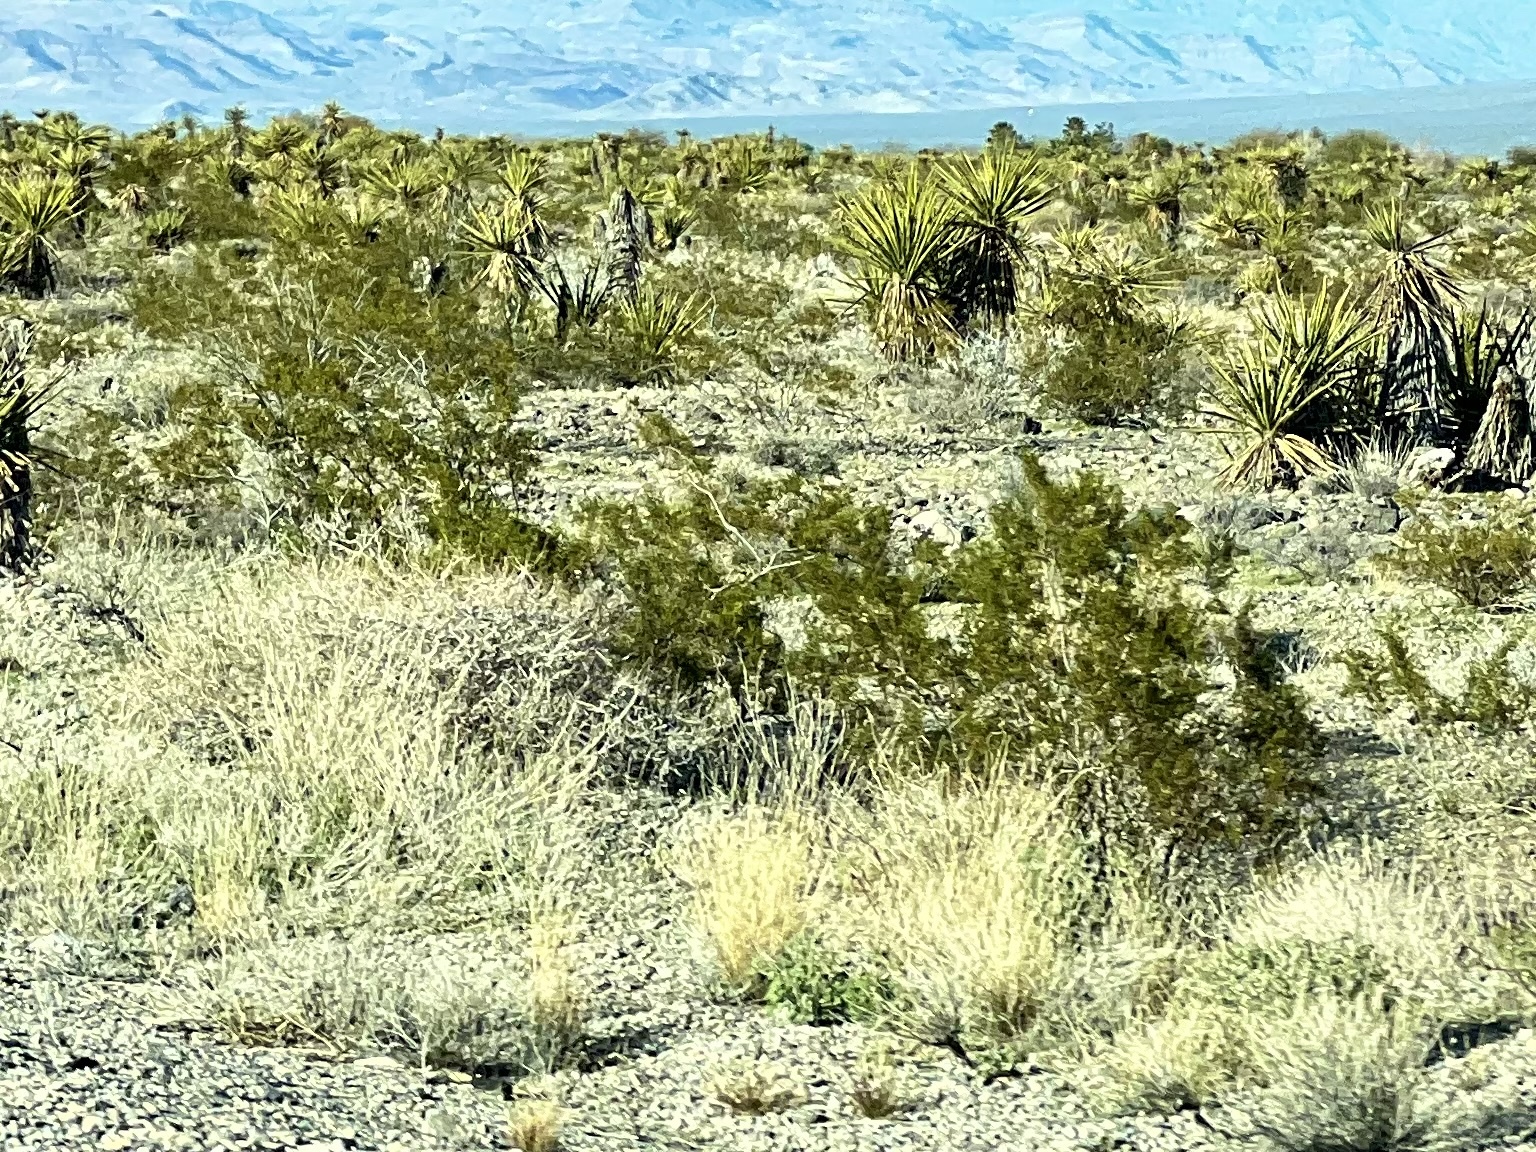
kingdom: Plantae
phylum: Tracheophyta
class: Magnoliopsida
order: Zygophyllales
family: Zygophyllaceae
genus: Larrea
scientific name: Larrea tridentata
